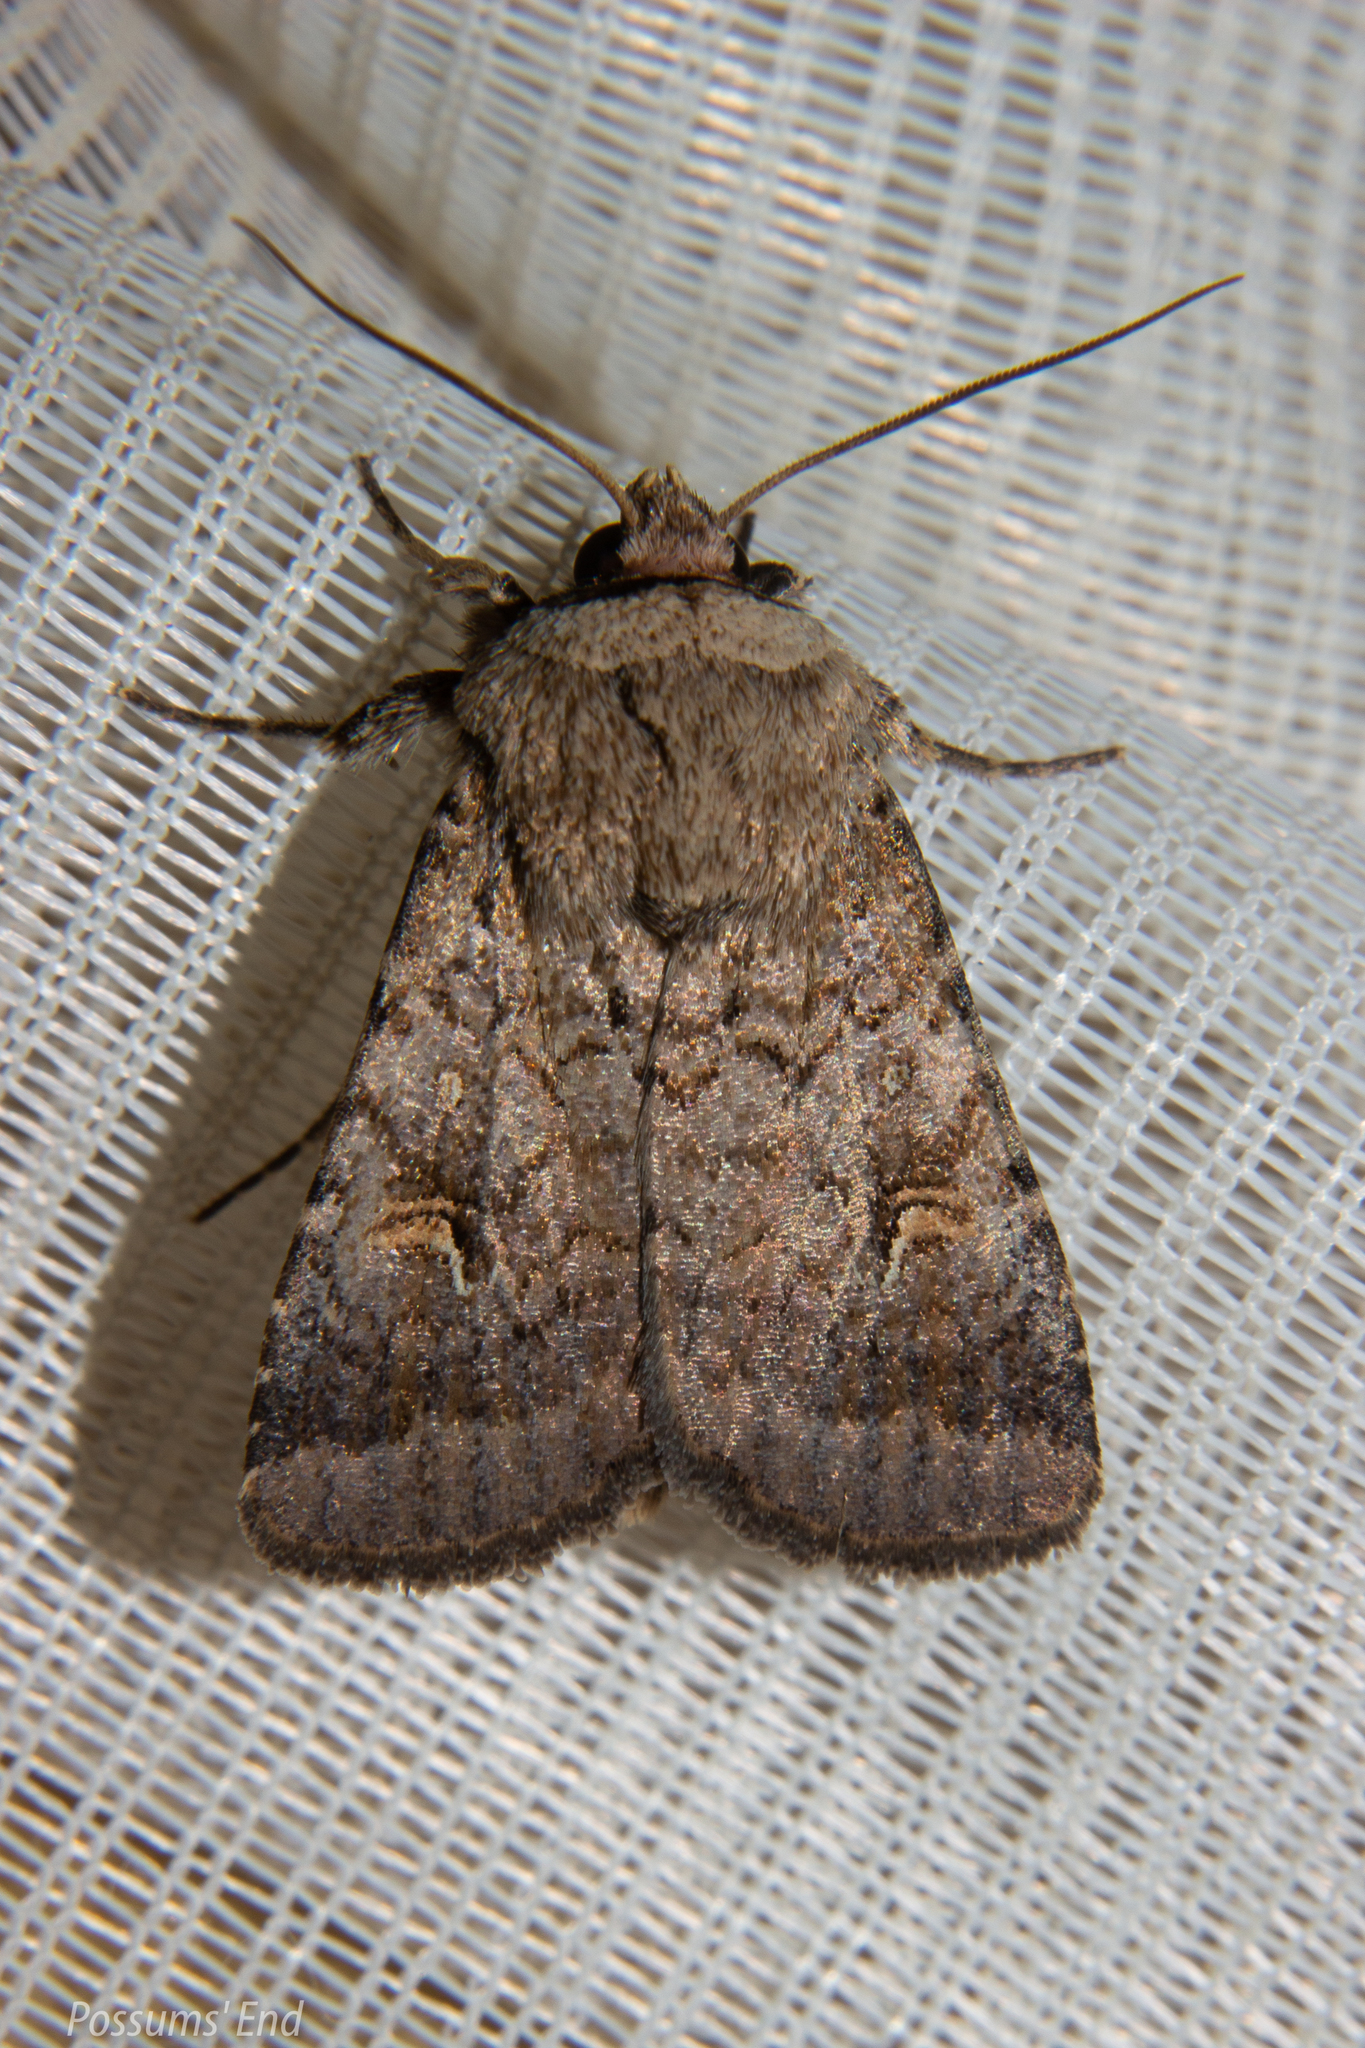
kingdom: Animalia
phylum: Arthropoda
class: Insecta
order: Lepidoptera
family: Noctuidae
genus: Proteuxoa
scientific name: Proteuxoa tetronycha
